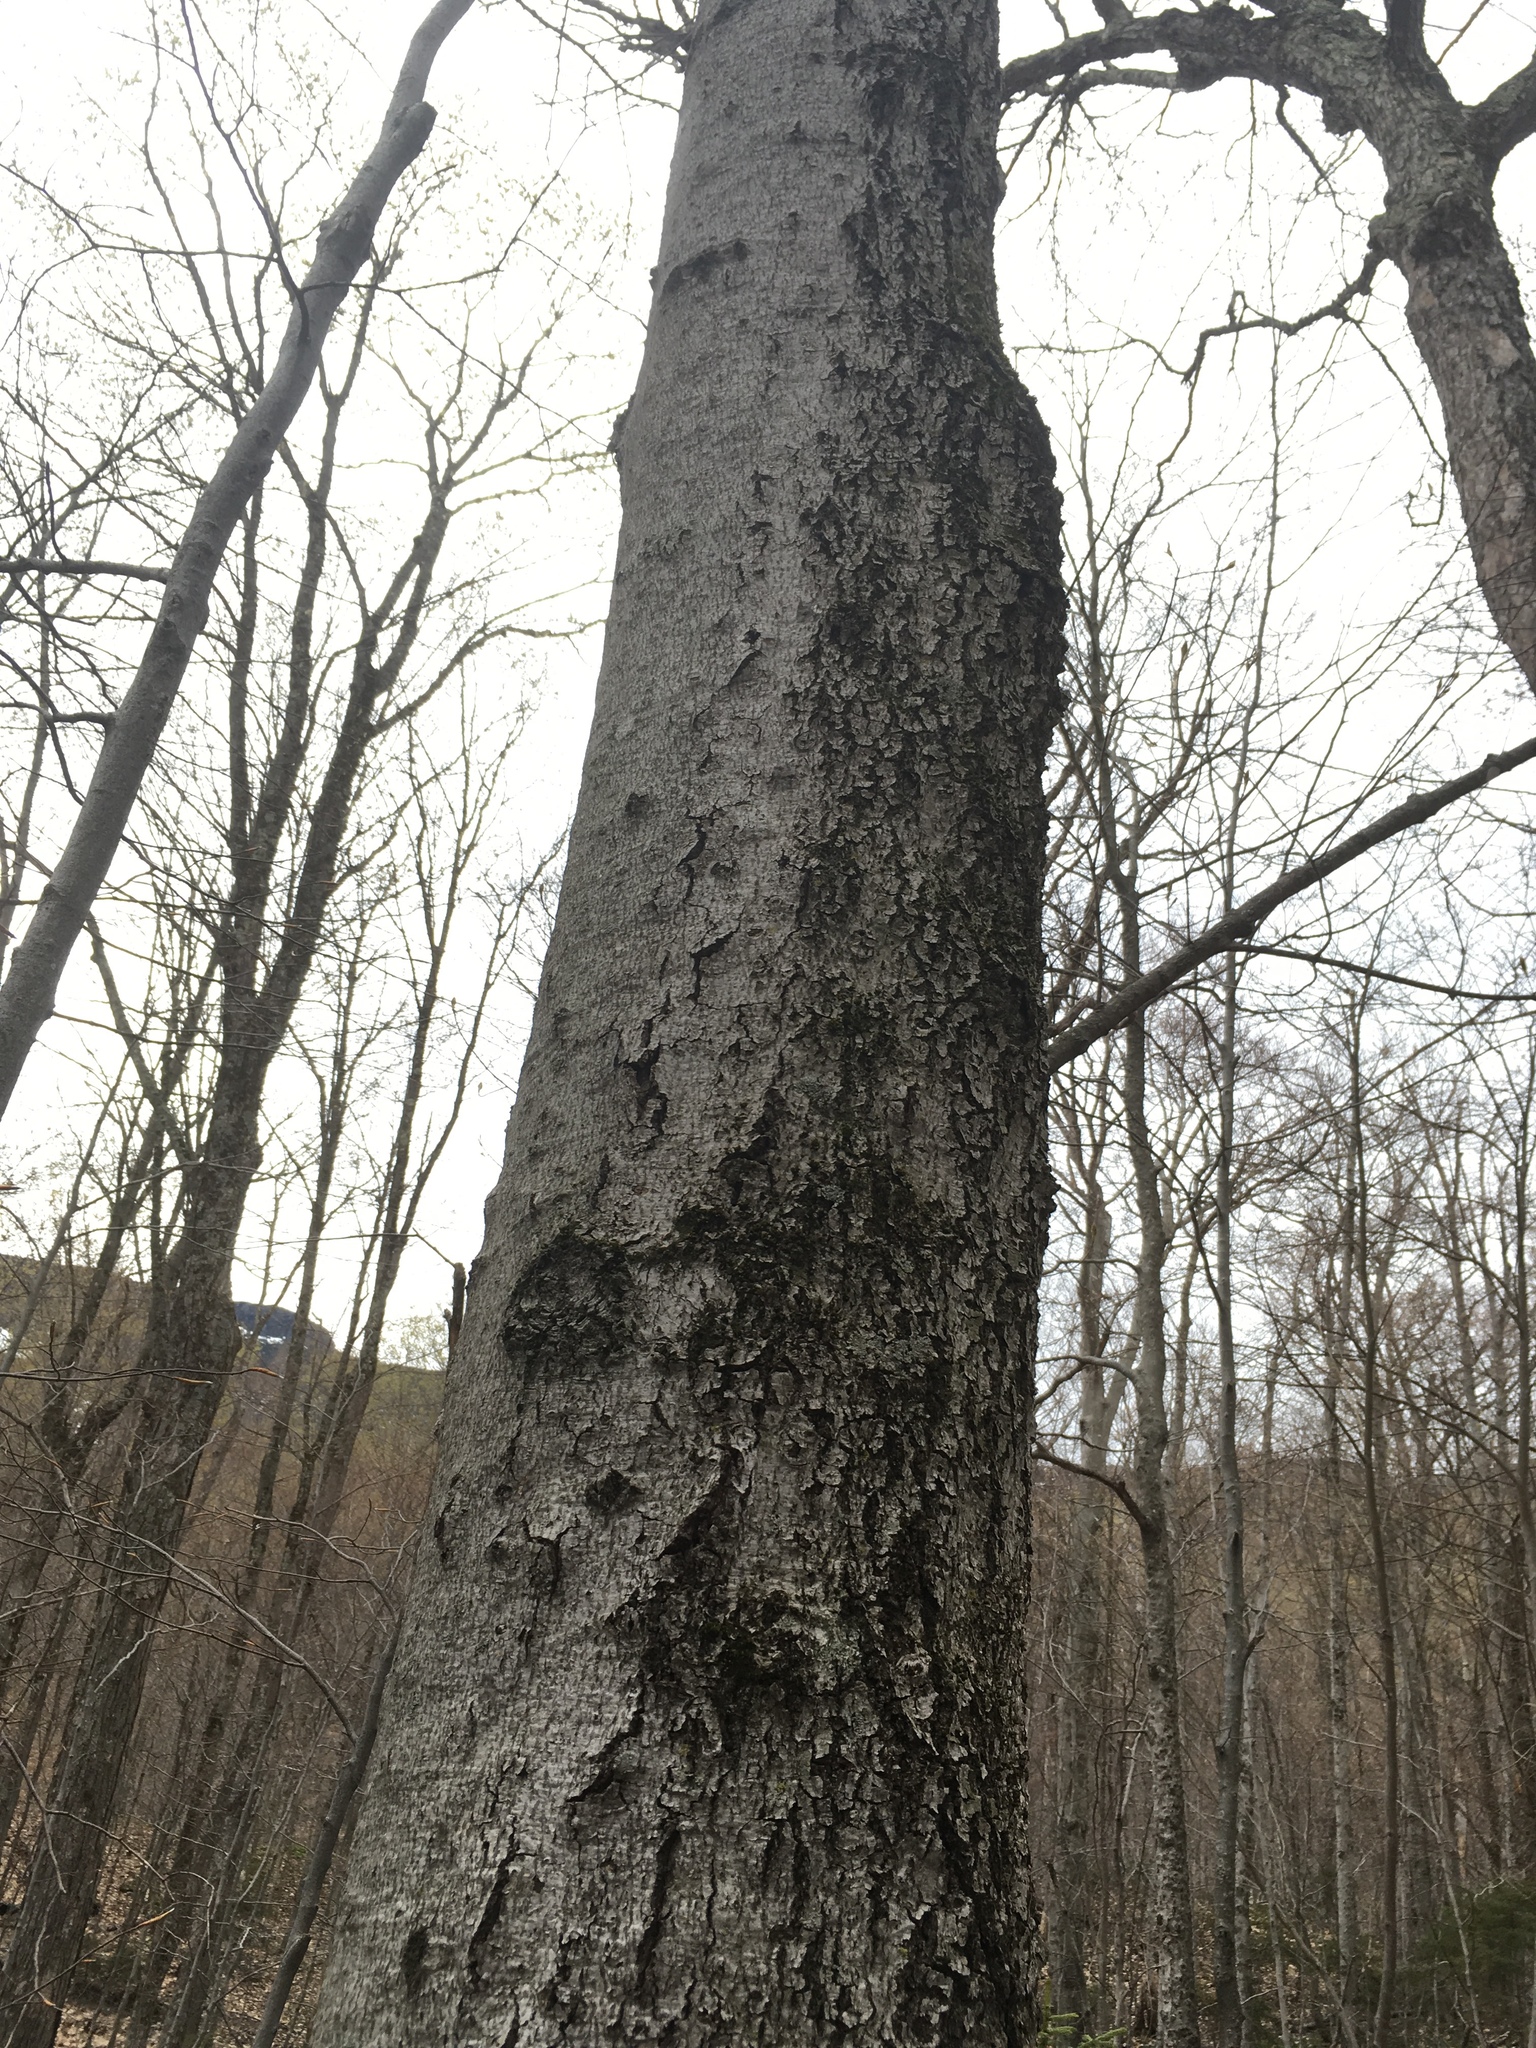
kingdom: Plantae
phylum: Tracheophyta
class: Magnoliopsida
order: Fagales
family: Fagaceae
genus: Fagus
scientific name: Fagus grandifolia
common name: American beech
